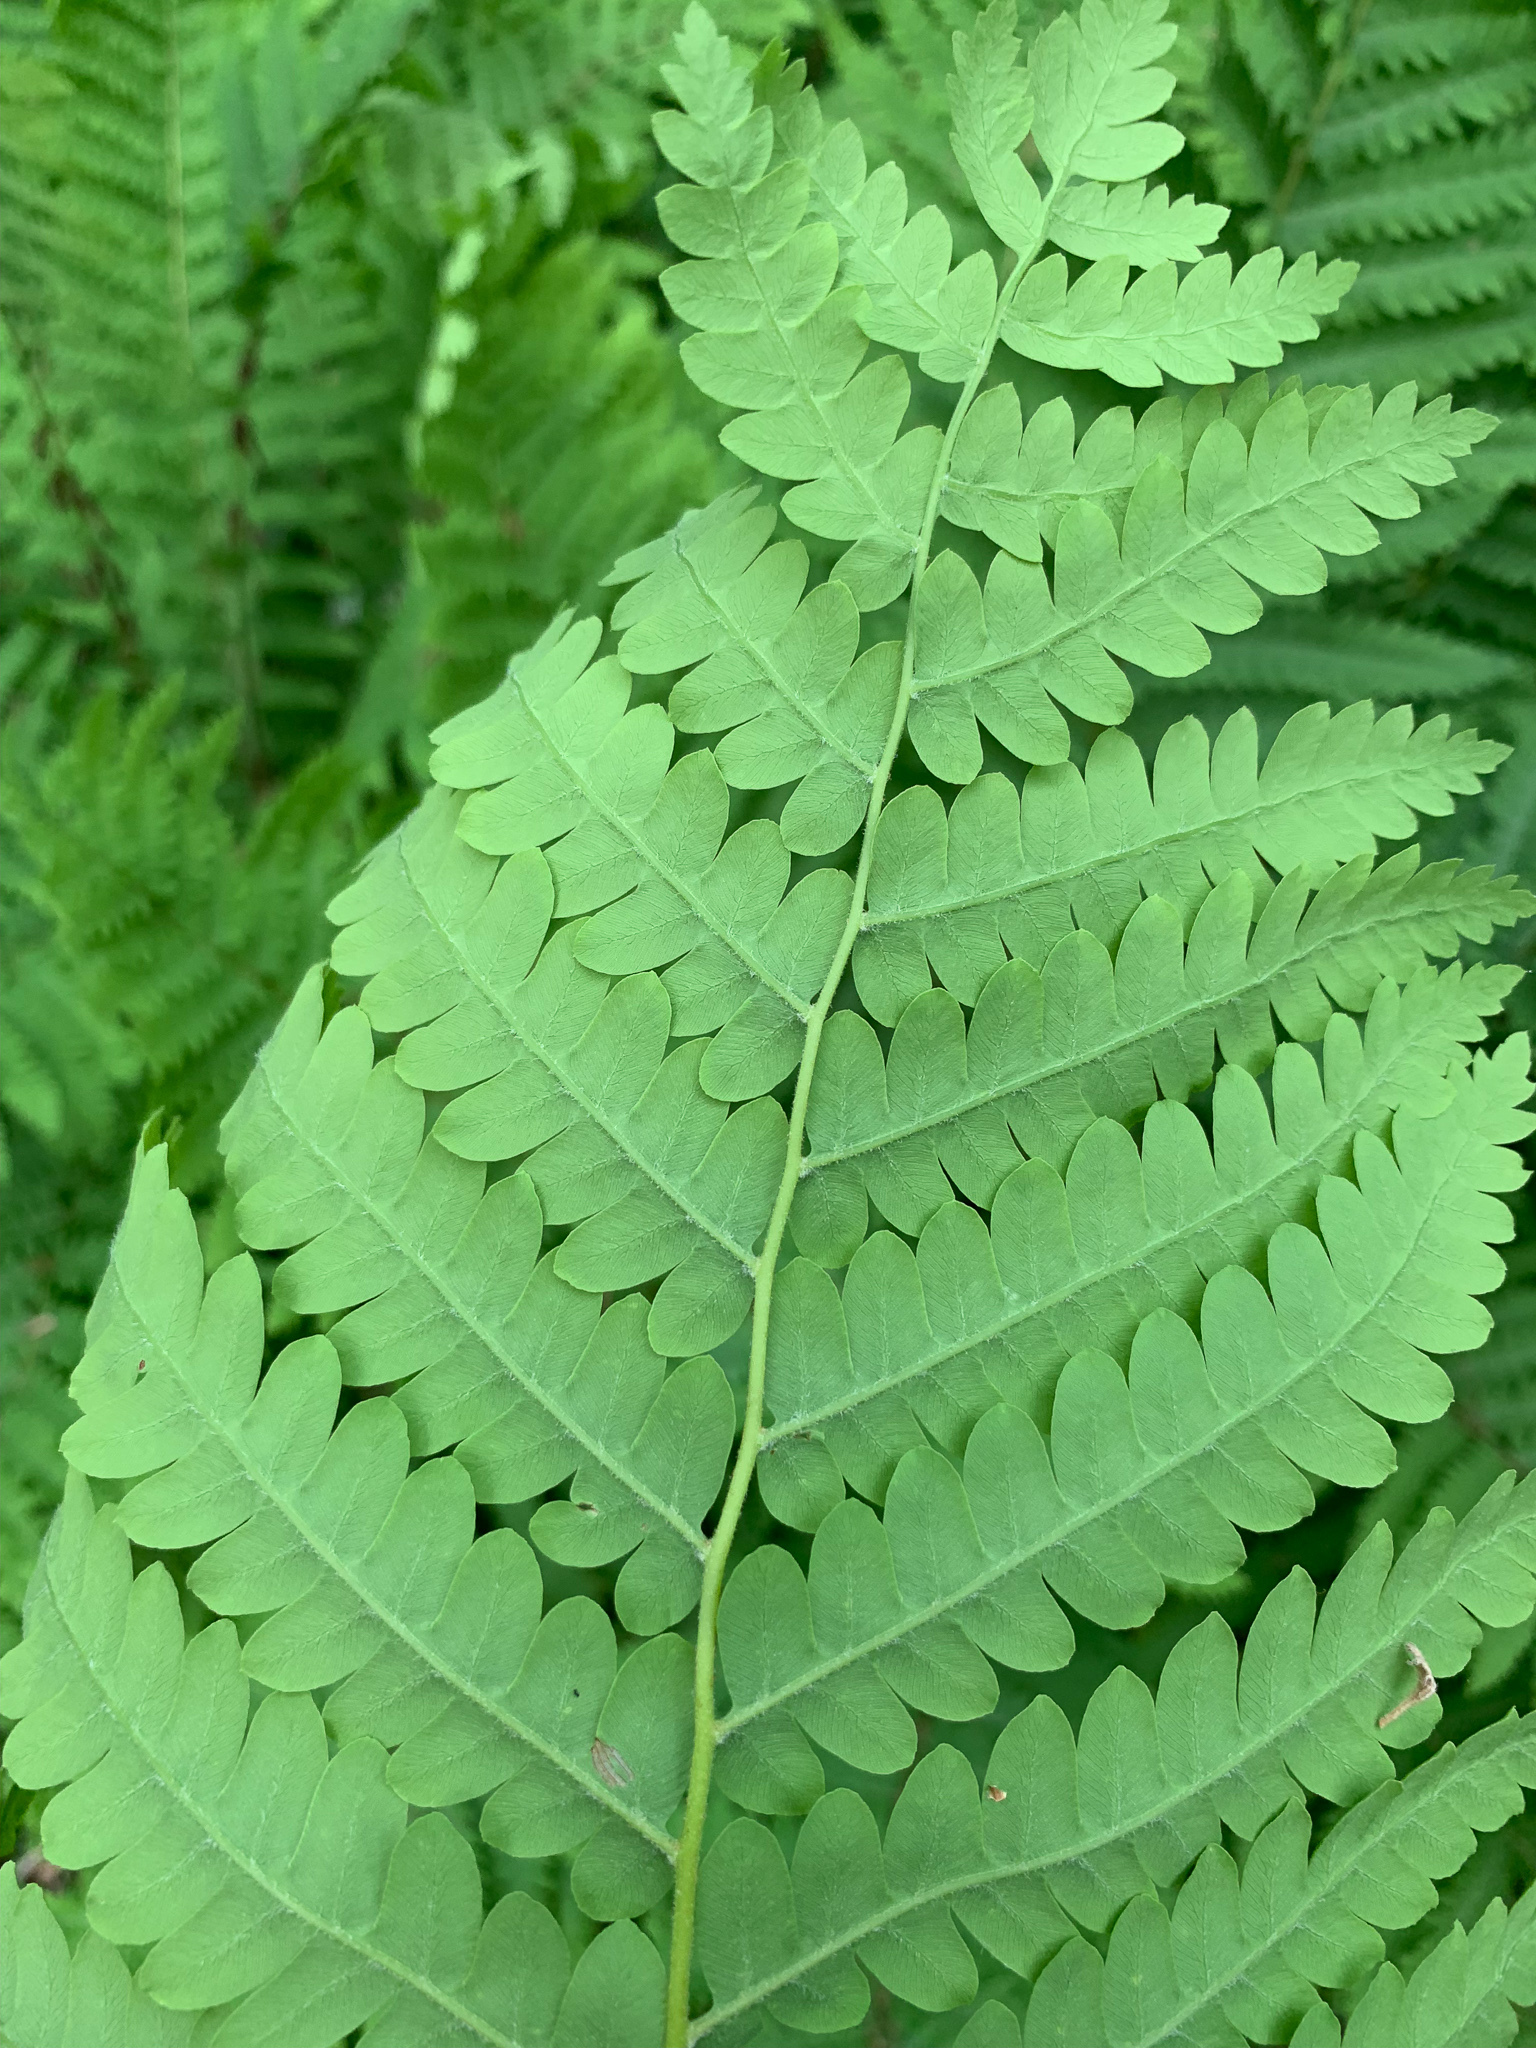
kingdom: Plantae
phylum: Tracheophyta
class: Polypodiopsida
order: Osmundales
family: Osmundaceae
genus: Claytosmunda
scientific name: Claytosmunda claytoniana
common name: Clayton's fern
